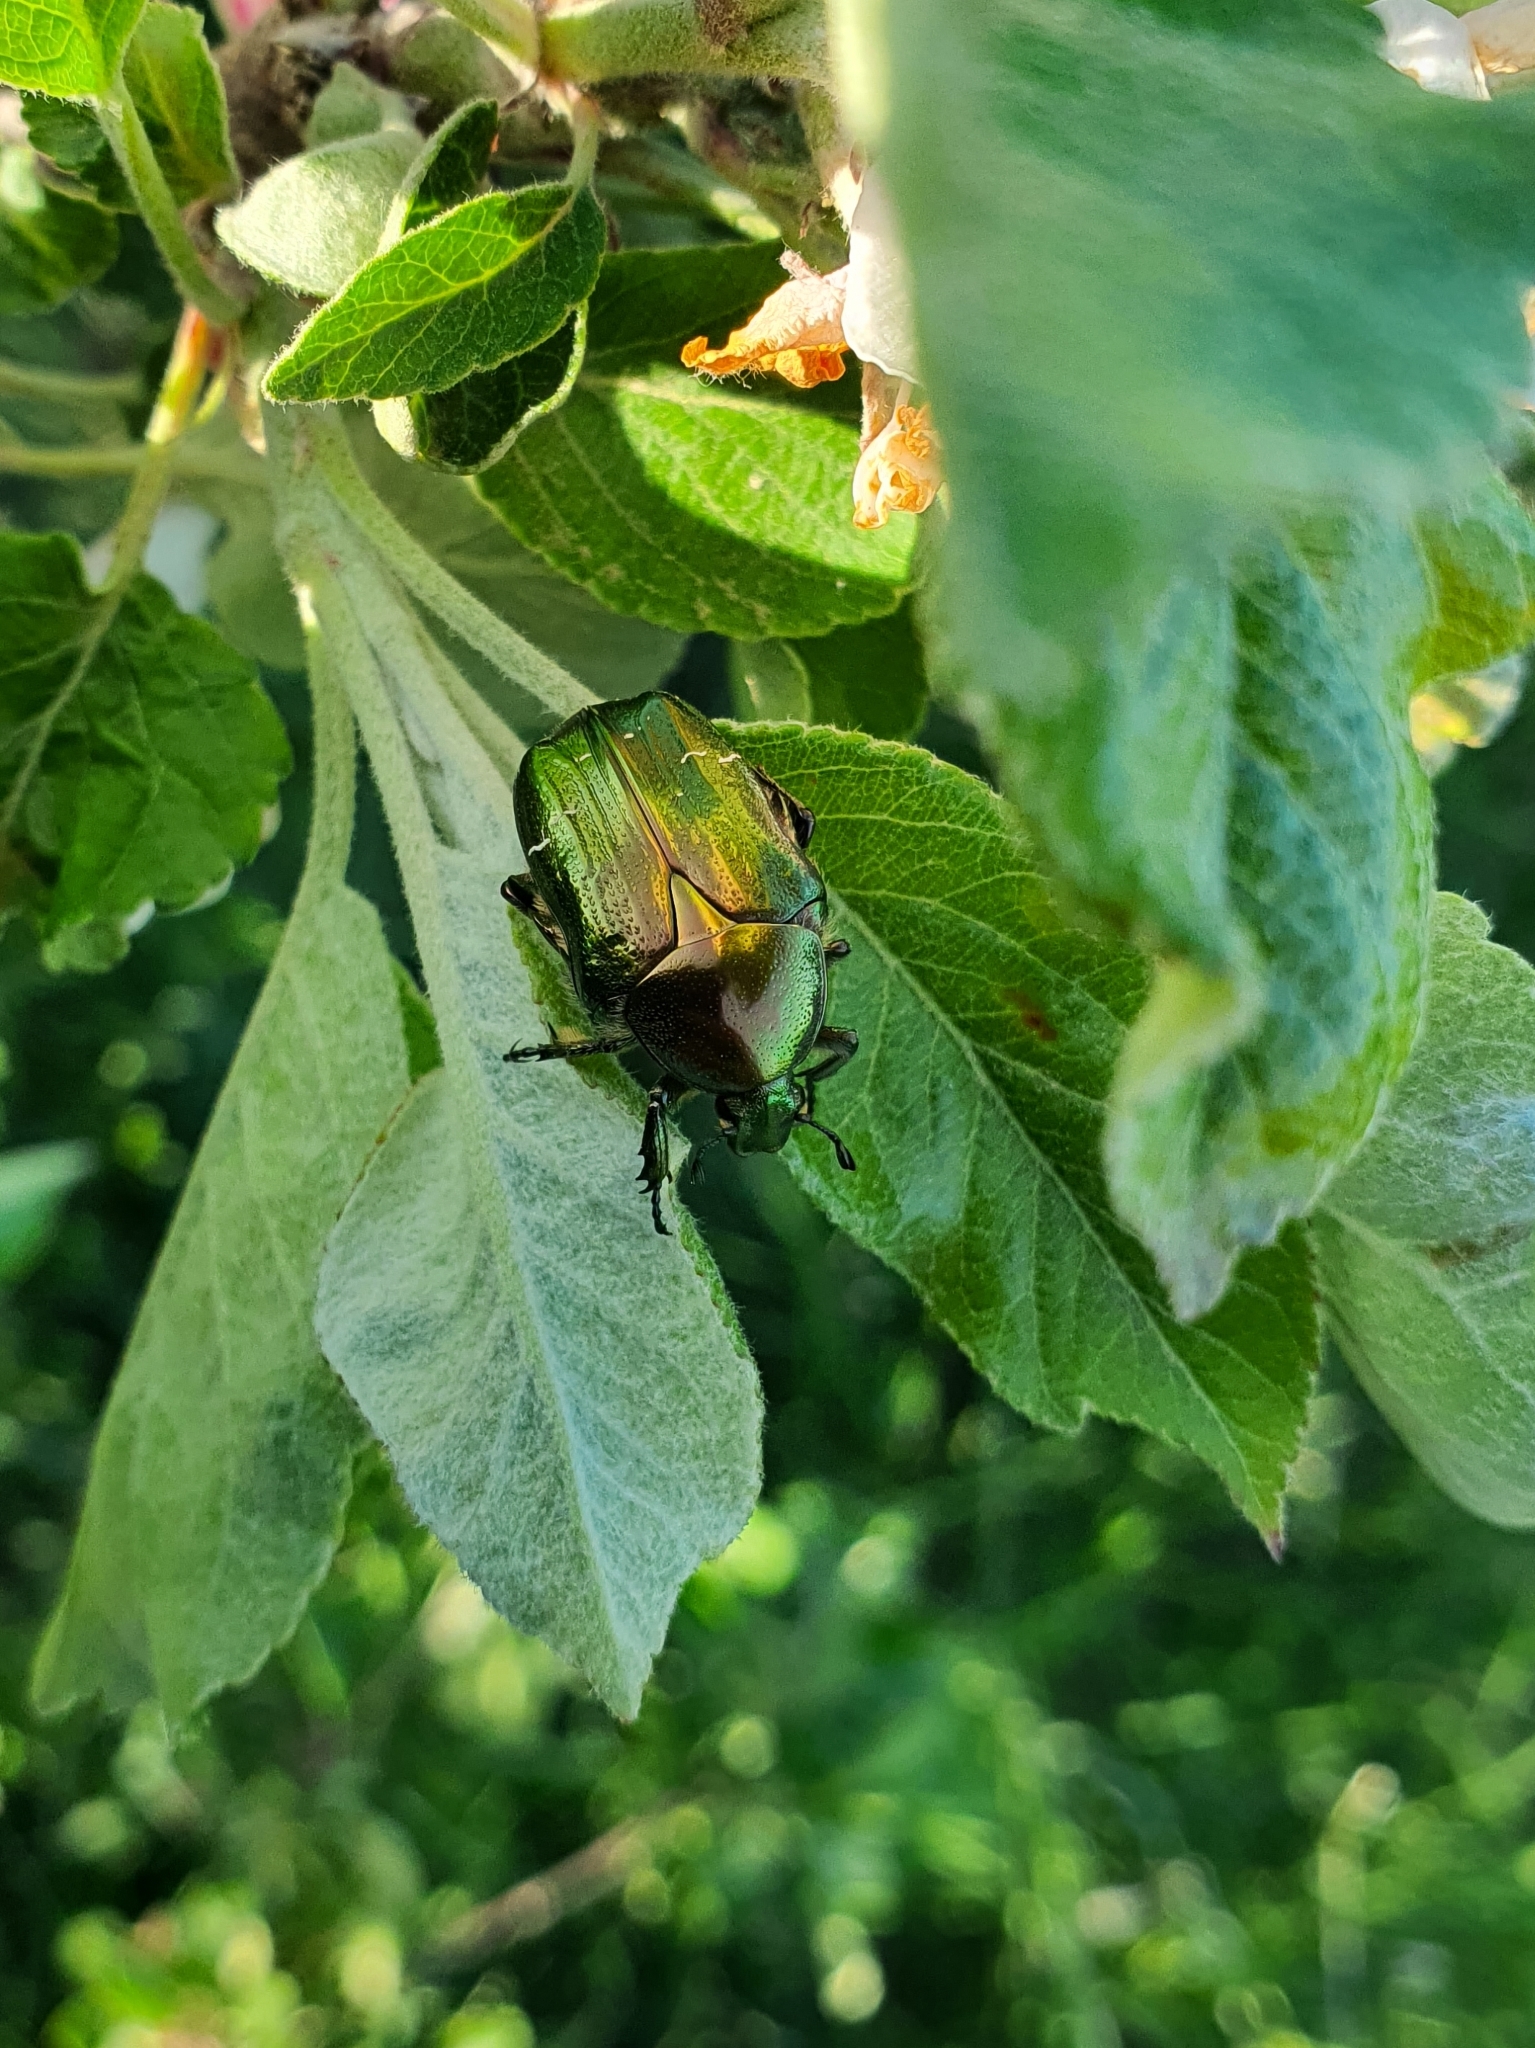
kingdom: Animalia
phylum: Arthropoda
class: Insecta
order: Coleoptera
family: Scarabaeidae
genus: Cetonia
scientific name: Cetonia aurata
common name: Rose chafer
